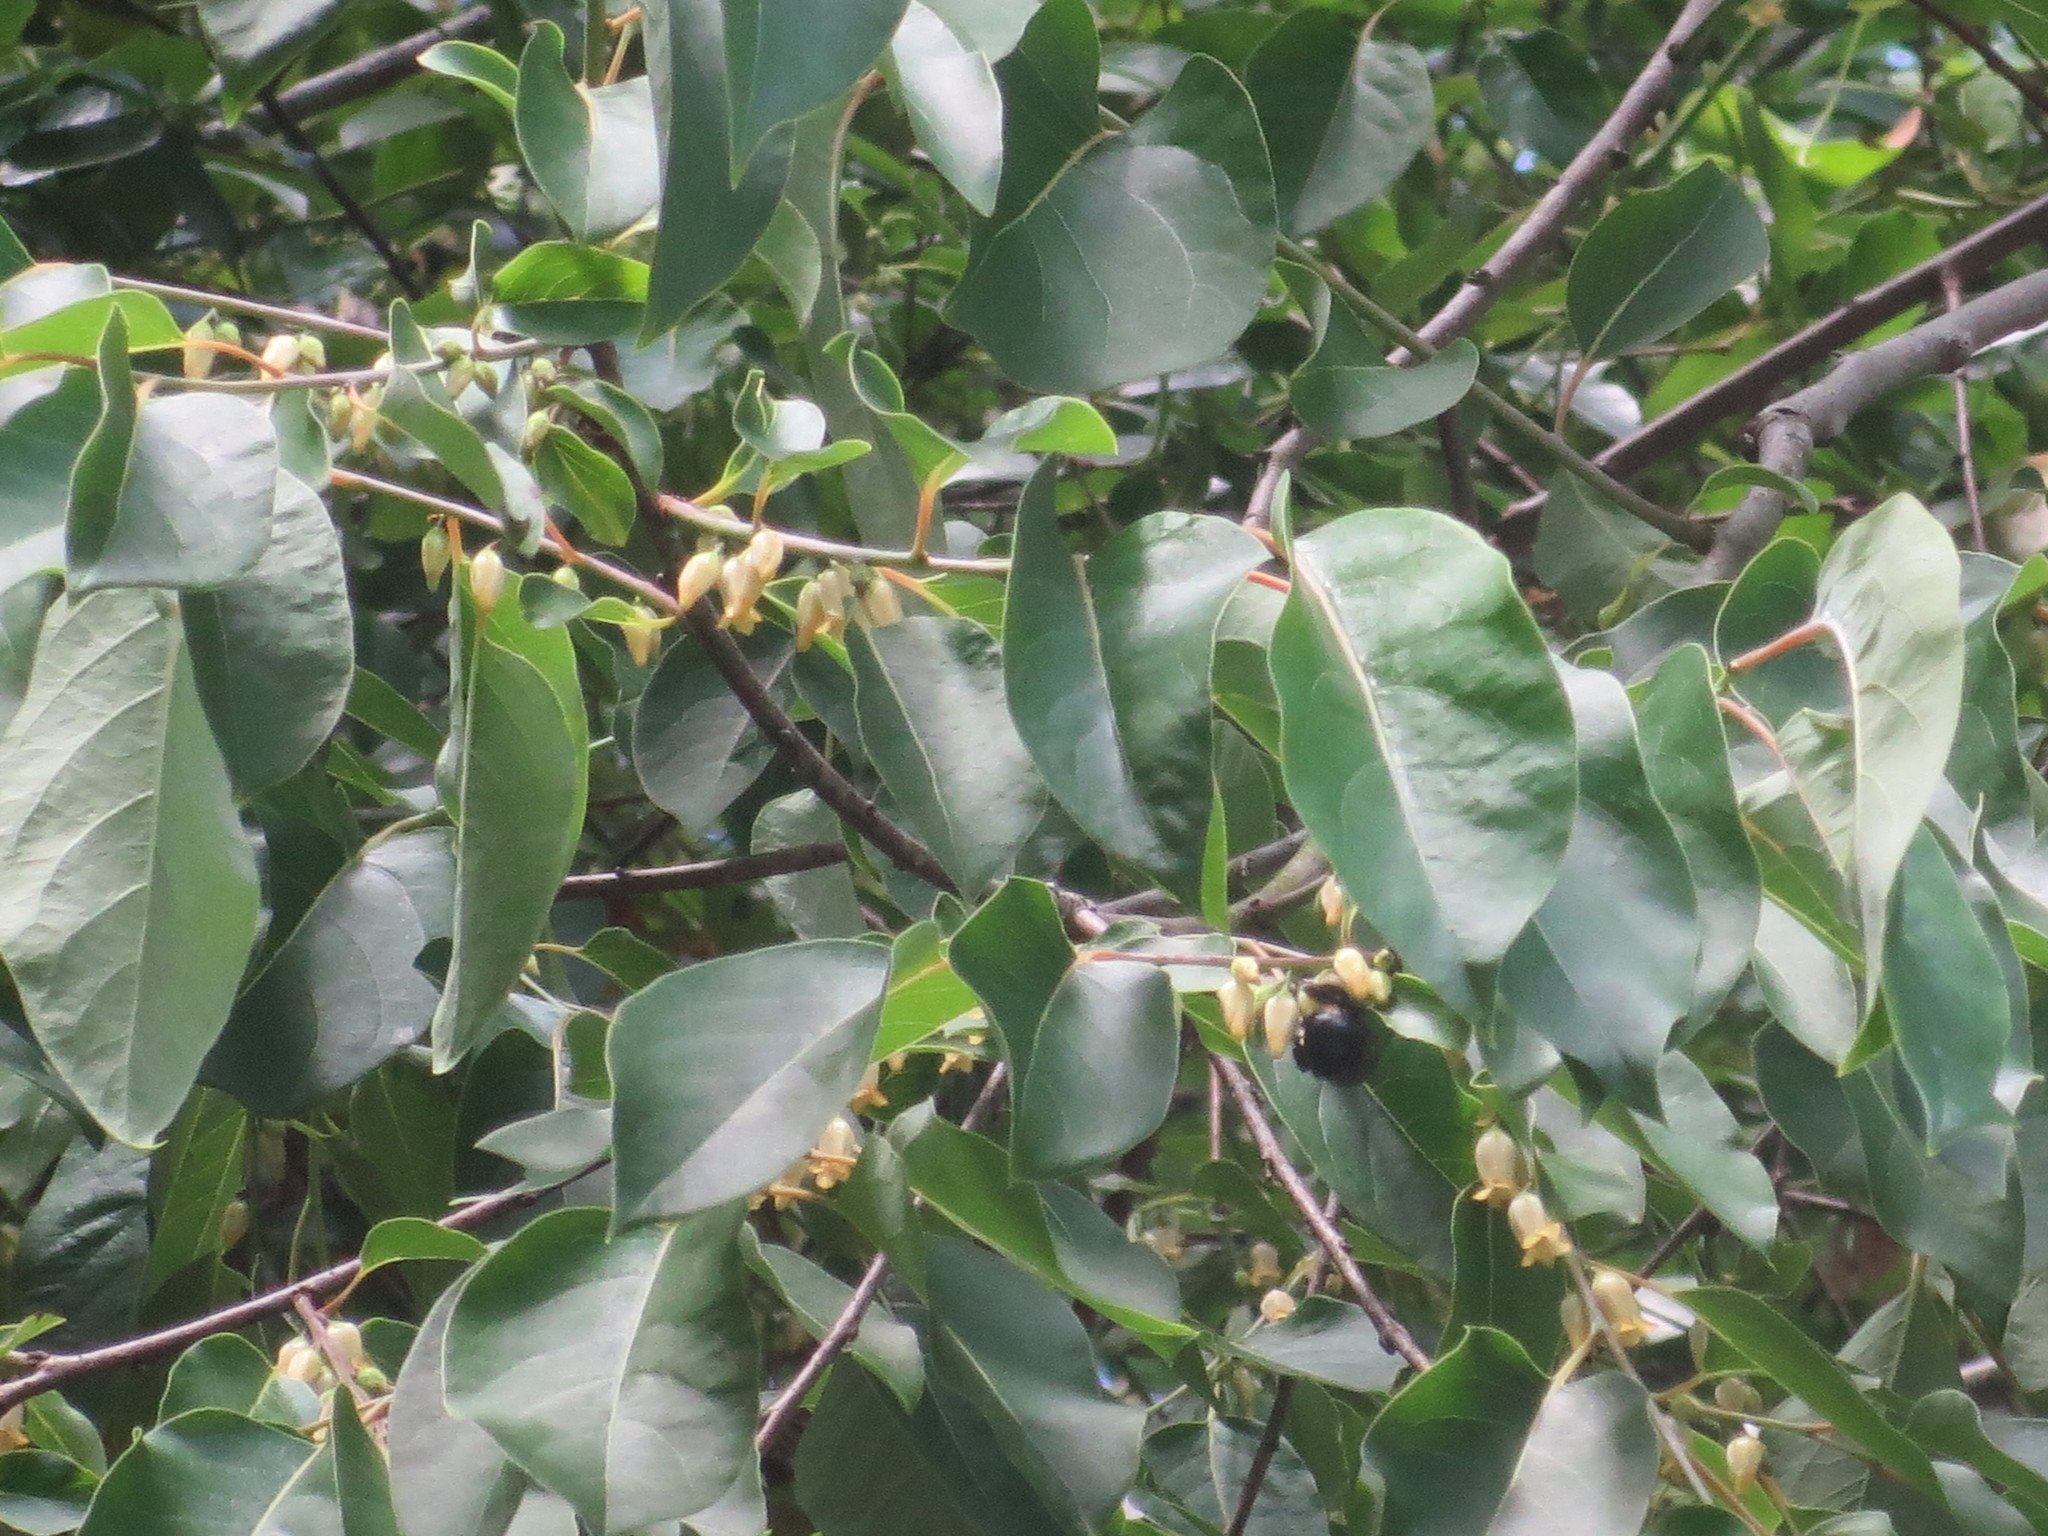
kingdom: Plantae
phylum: Tracheophyta
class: Magnoliopsida
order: Ericales
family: Ebenaceae
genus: Diospyros
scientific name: Diospyros virginiana
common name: Persimmon
